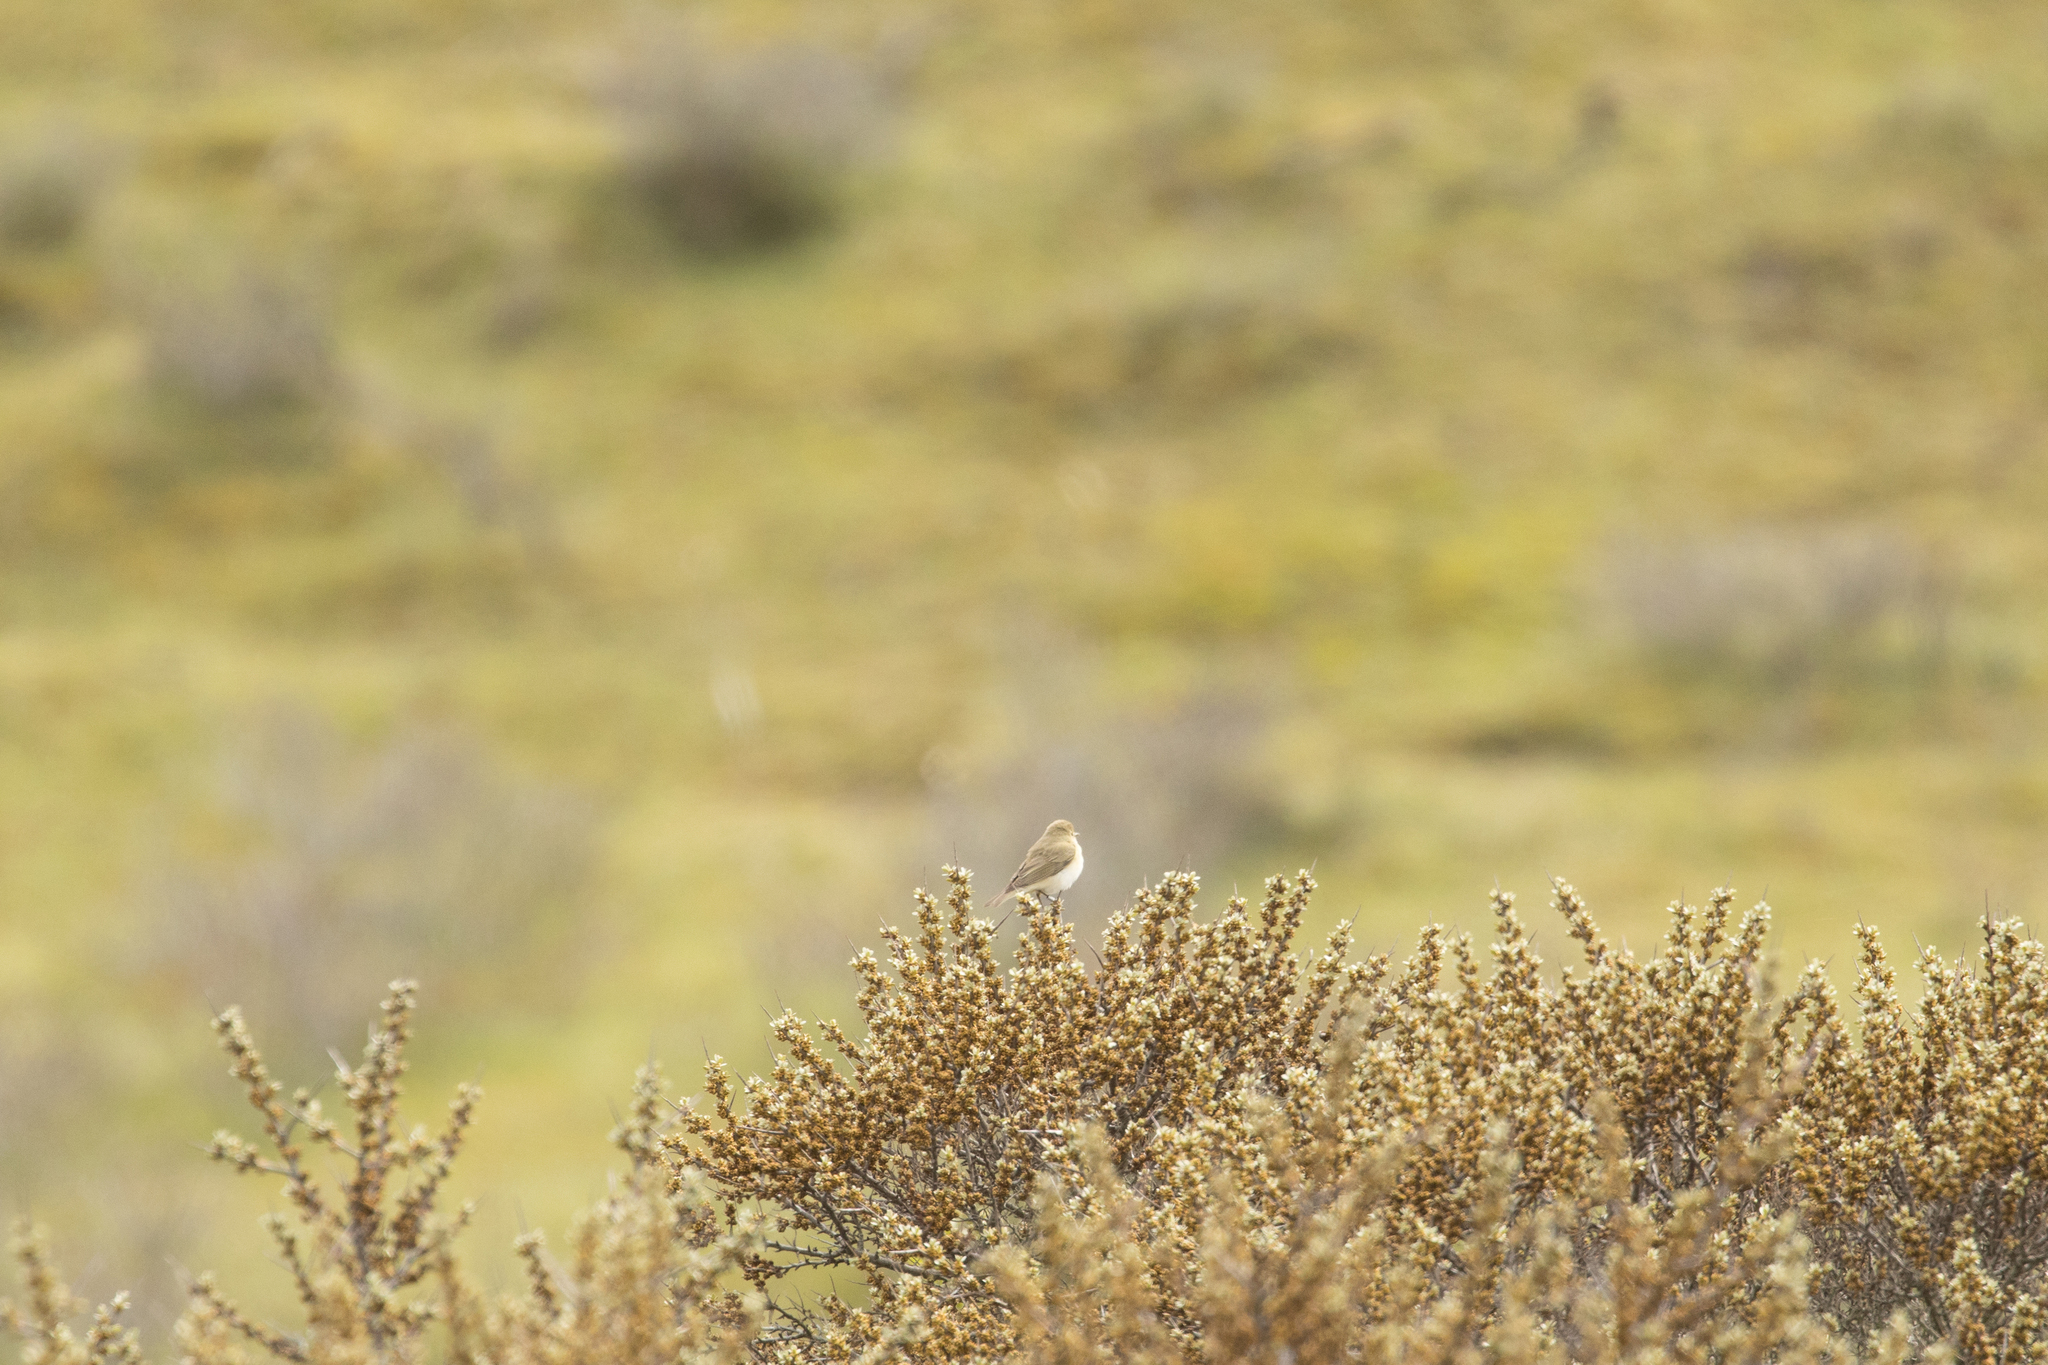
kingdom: Animalia
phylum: Chordata
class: Aves
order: Passeriformes
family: Phylloscopidae
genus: Phylloscopus
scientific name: Phylloscopus trochilus
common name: Willow warbler
